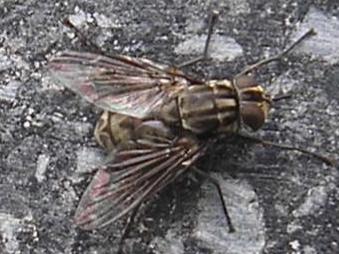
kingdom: Animalia
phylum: Arthropoda
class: Insecta
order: Diptera
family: Muscidae
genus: Stomoxys
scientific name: Stomoxys calcitrans
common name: Stable fly
